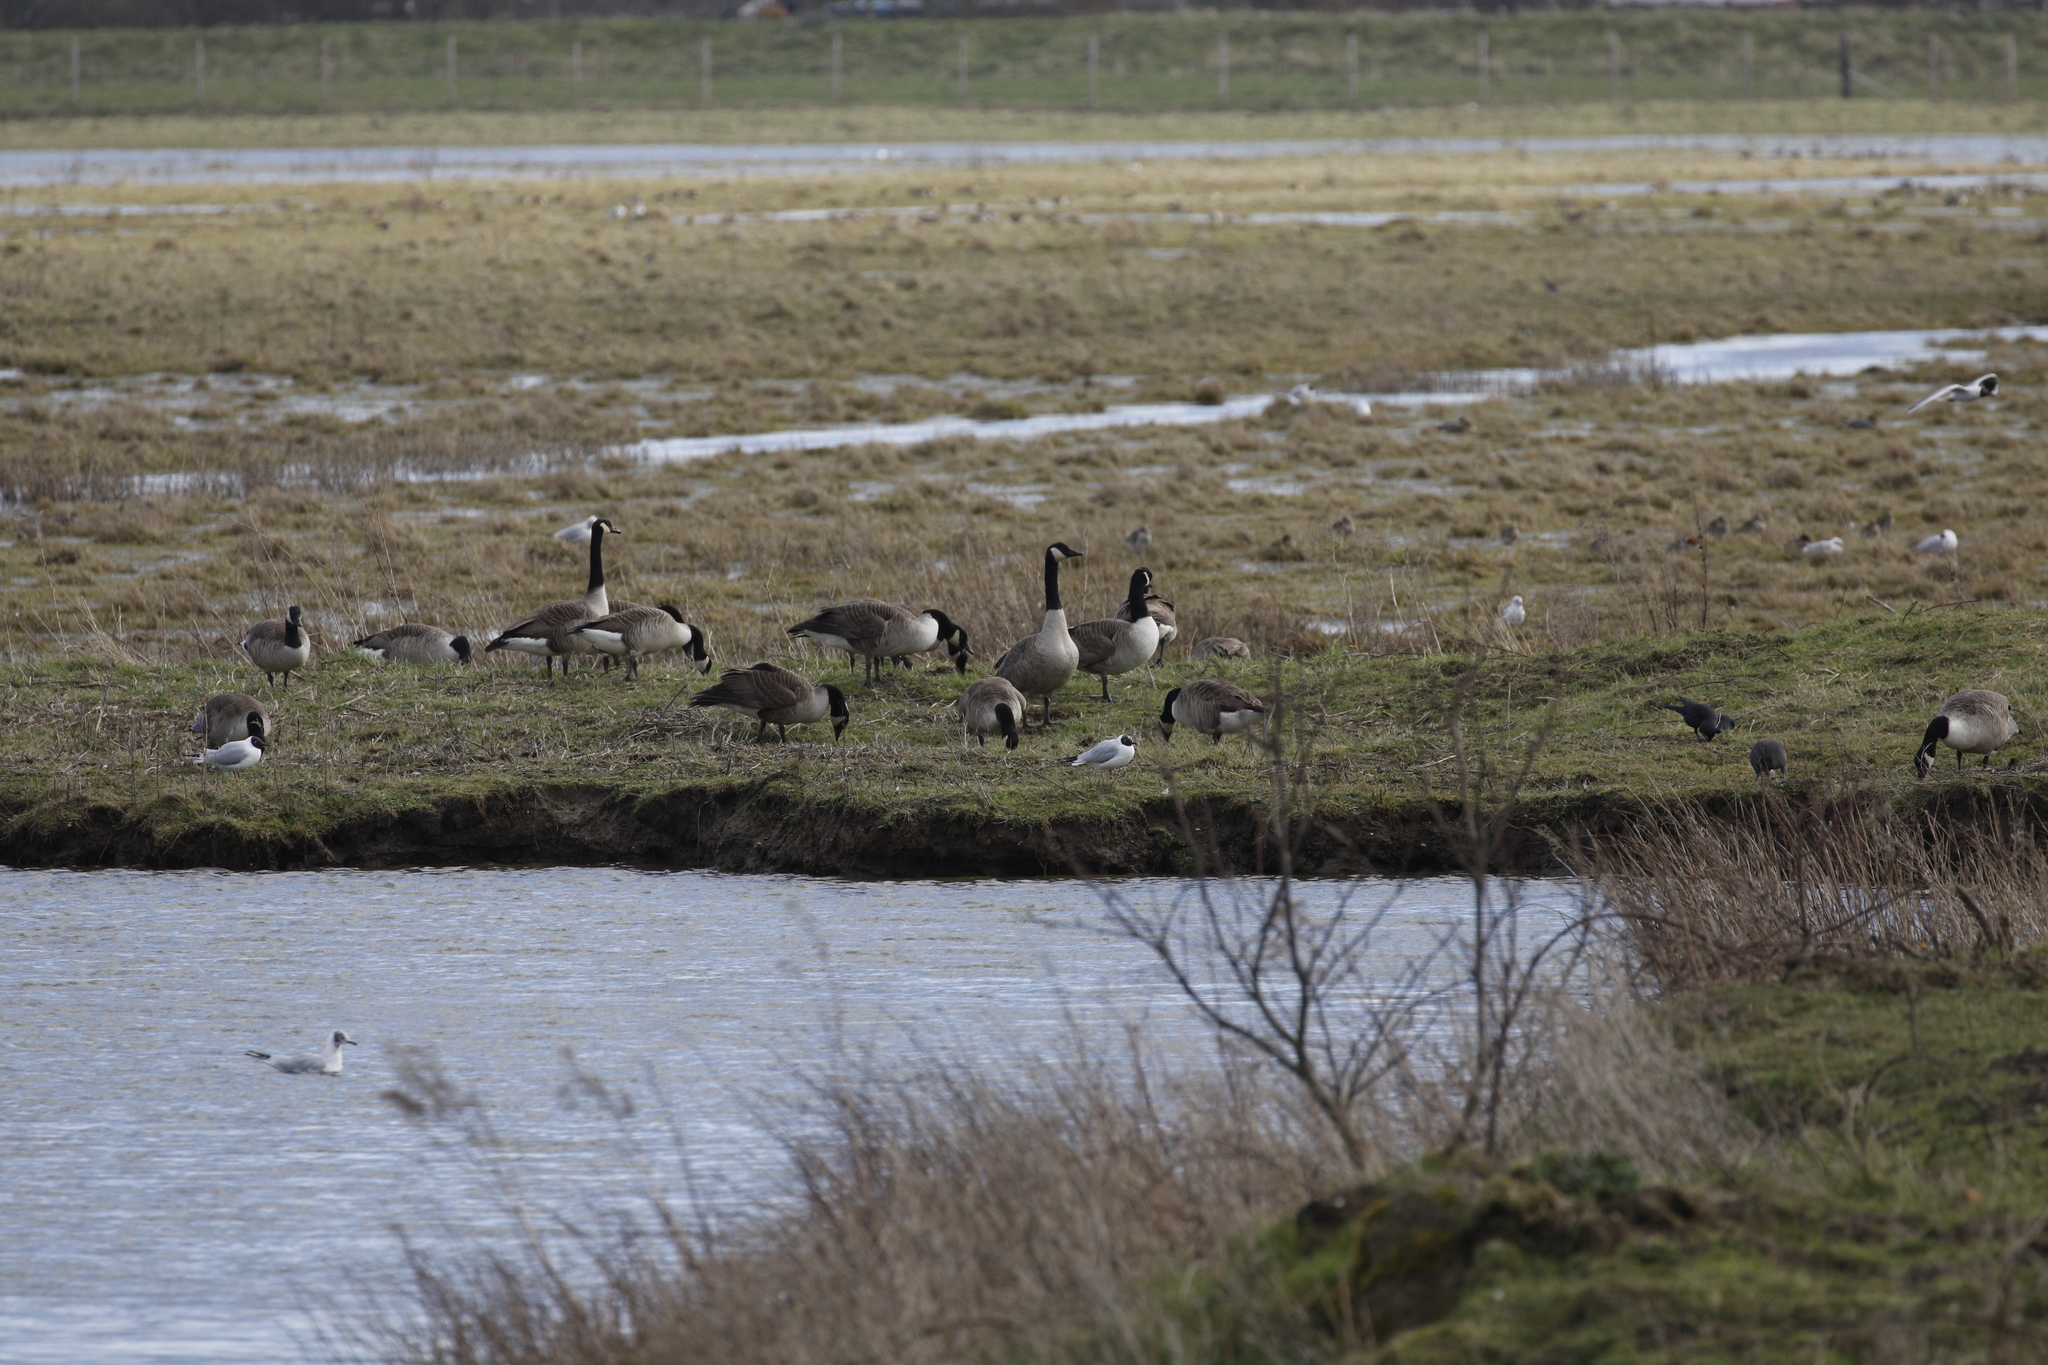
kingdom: Animalia
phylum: Chordata
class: Aves
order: Anseriformes
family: Anatidae
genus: Branta
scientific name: Branta canadensis
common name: Canada goose
